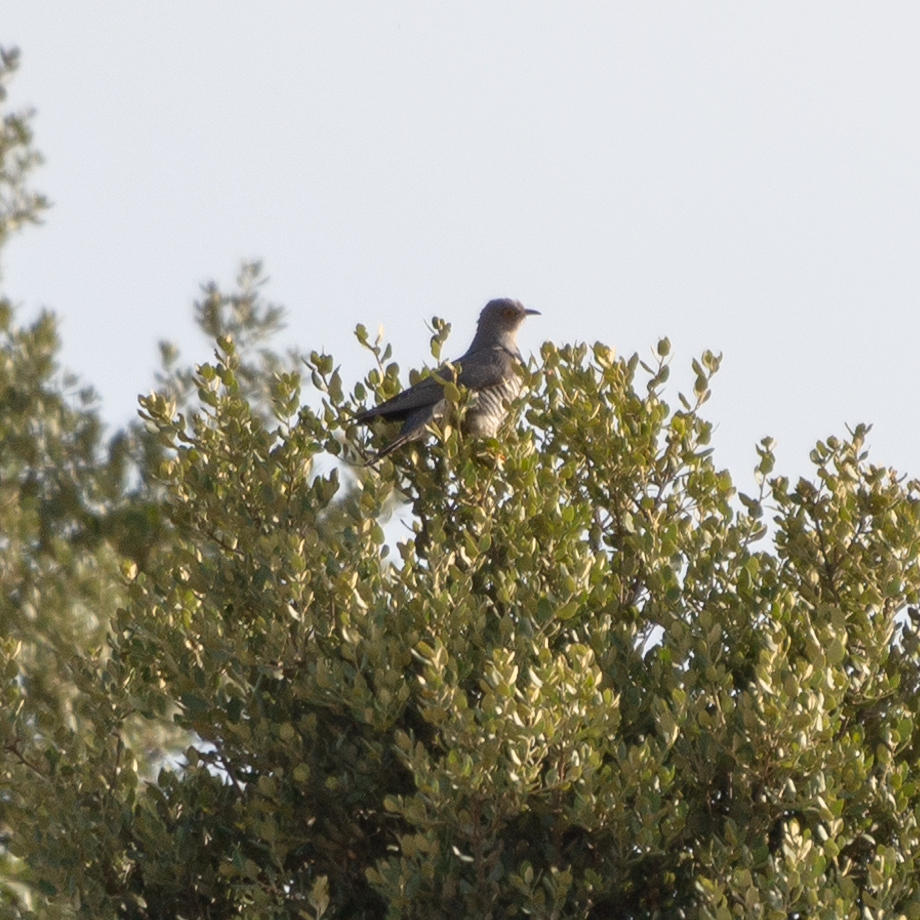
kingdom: Animalia
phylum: Chordata
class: Aves
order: Cuculiformes
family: Cuculidae
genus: Cuculus
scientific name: Cuculus canorus
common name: Common cuckoo
